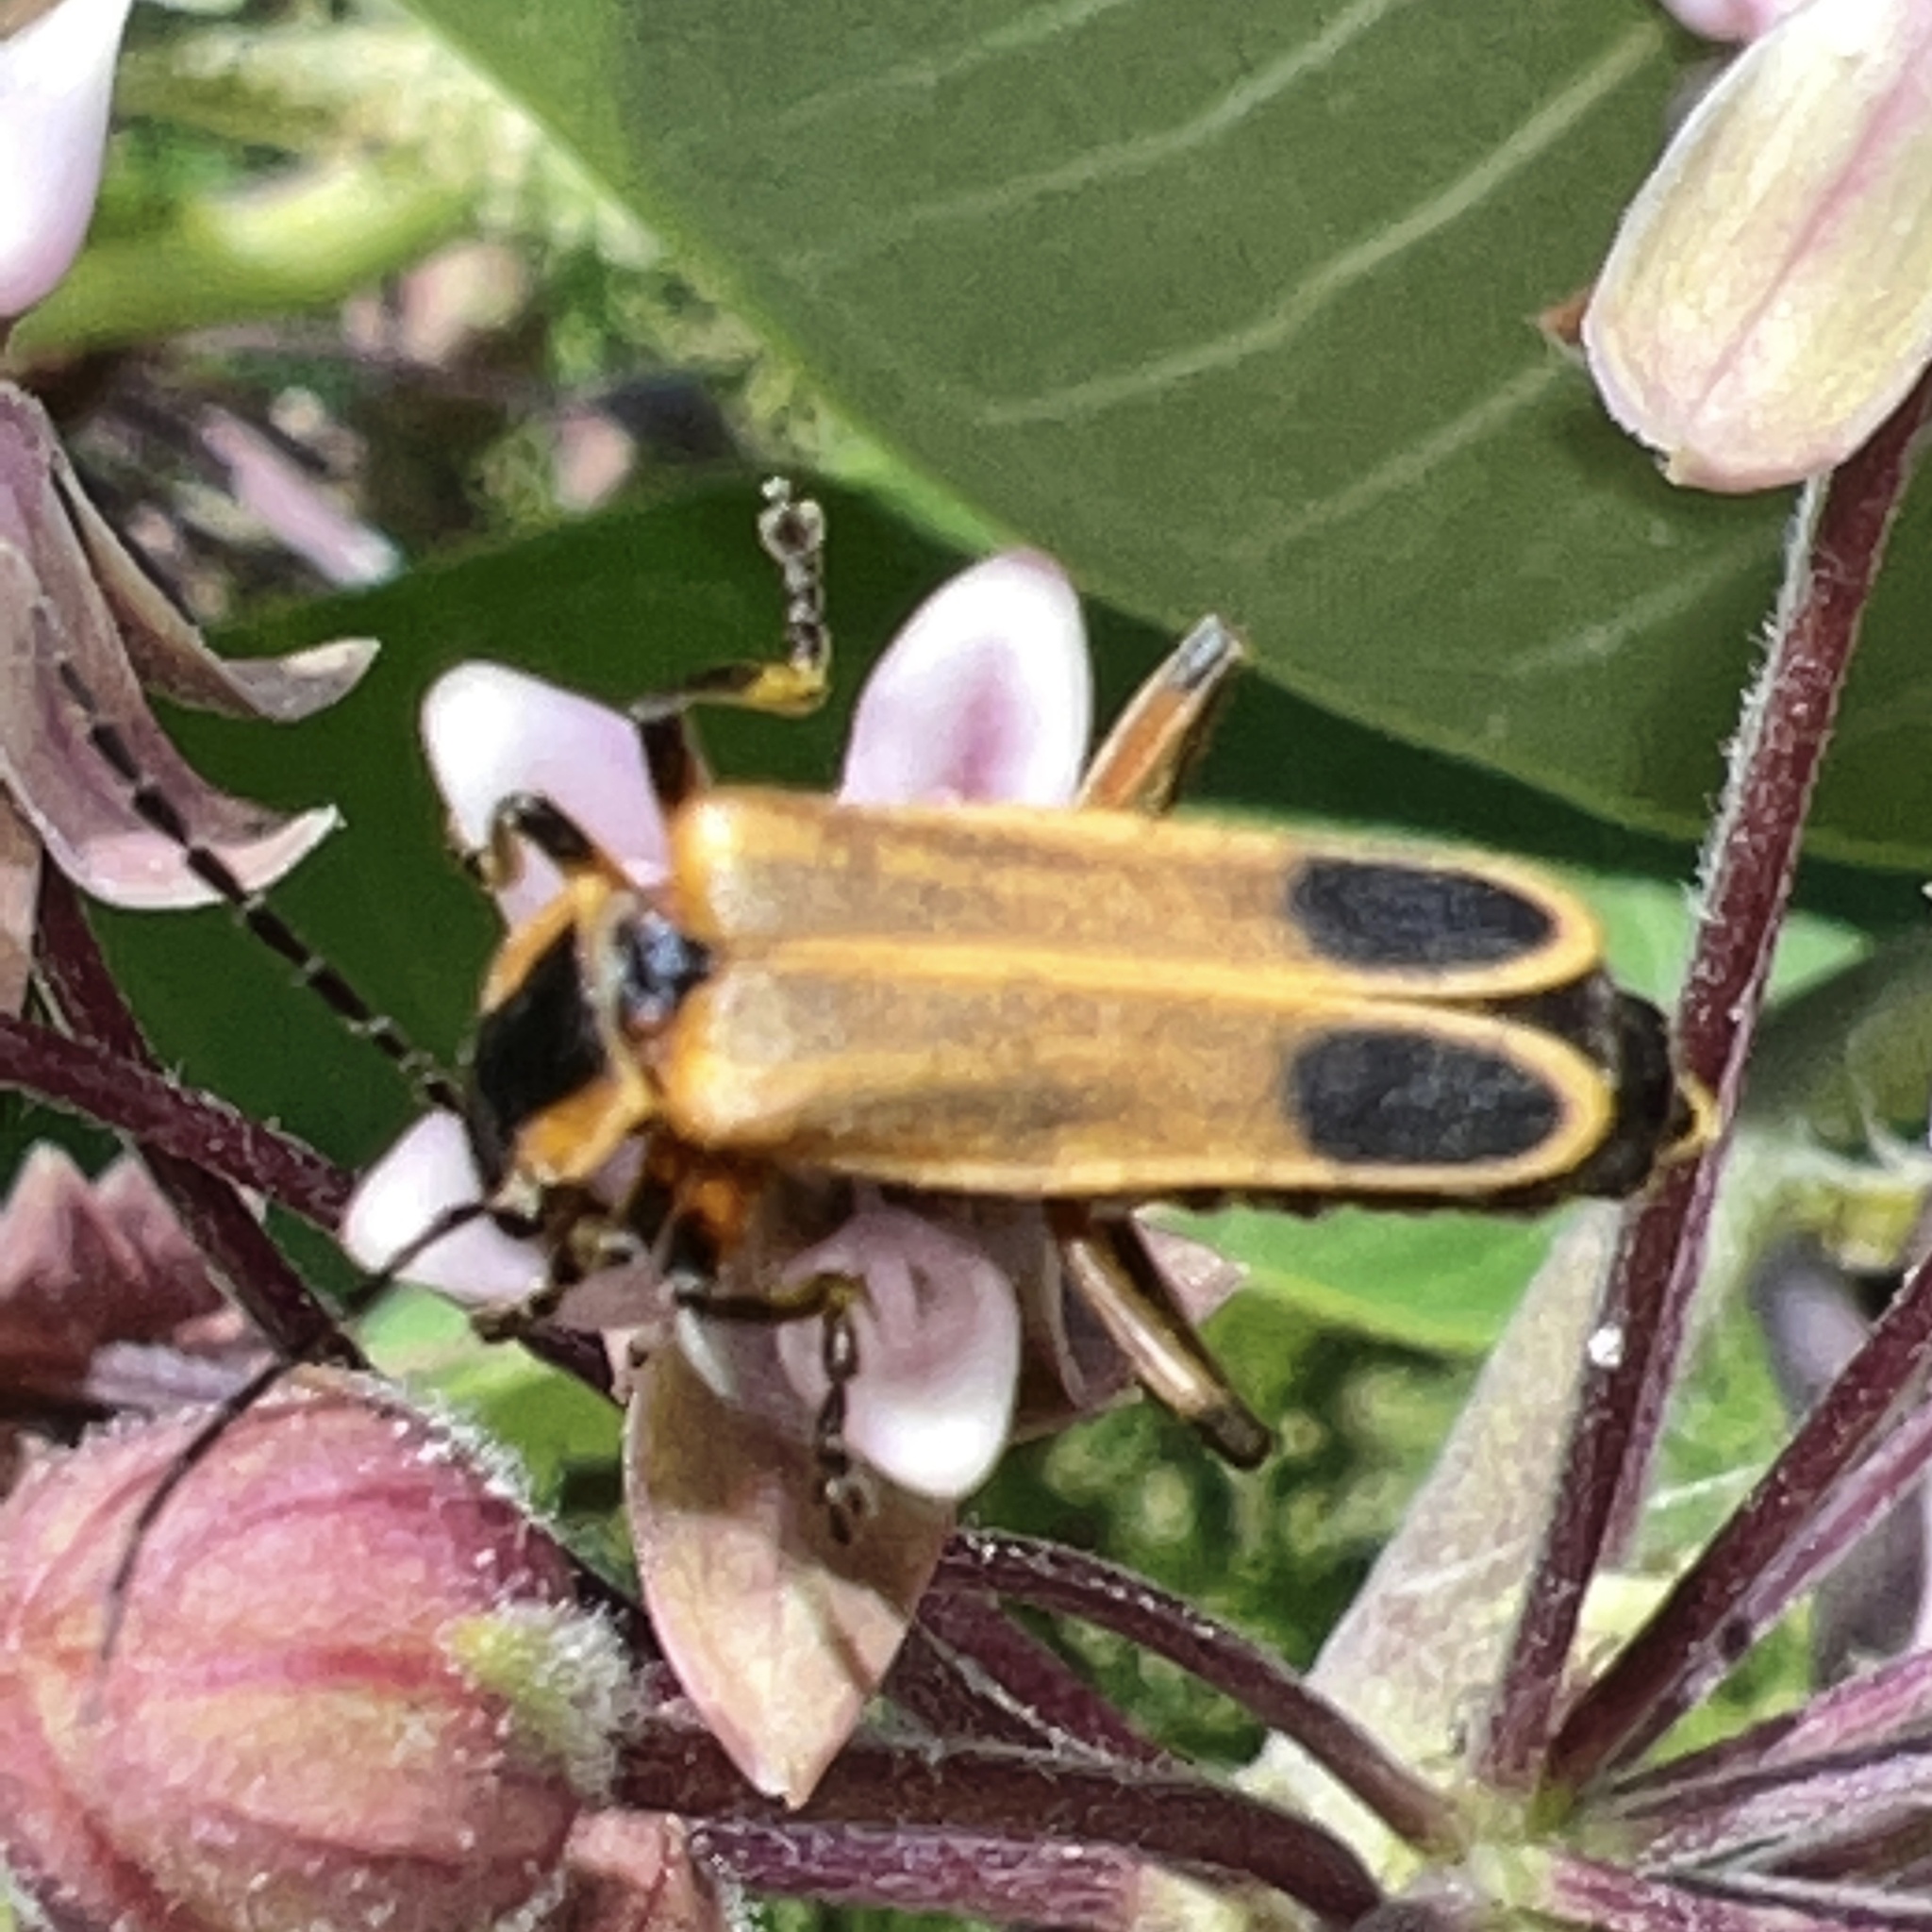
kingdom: Animalia
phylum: Arthropoda
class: Insecta
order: Coleoptera
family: Cantharidae
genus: Chauliognathus
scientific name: Chauliognathus marginatus
